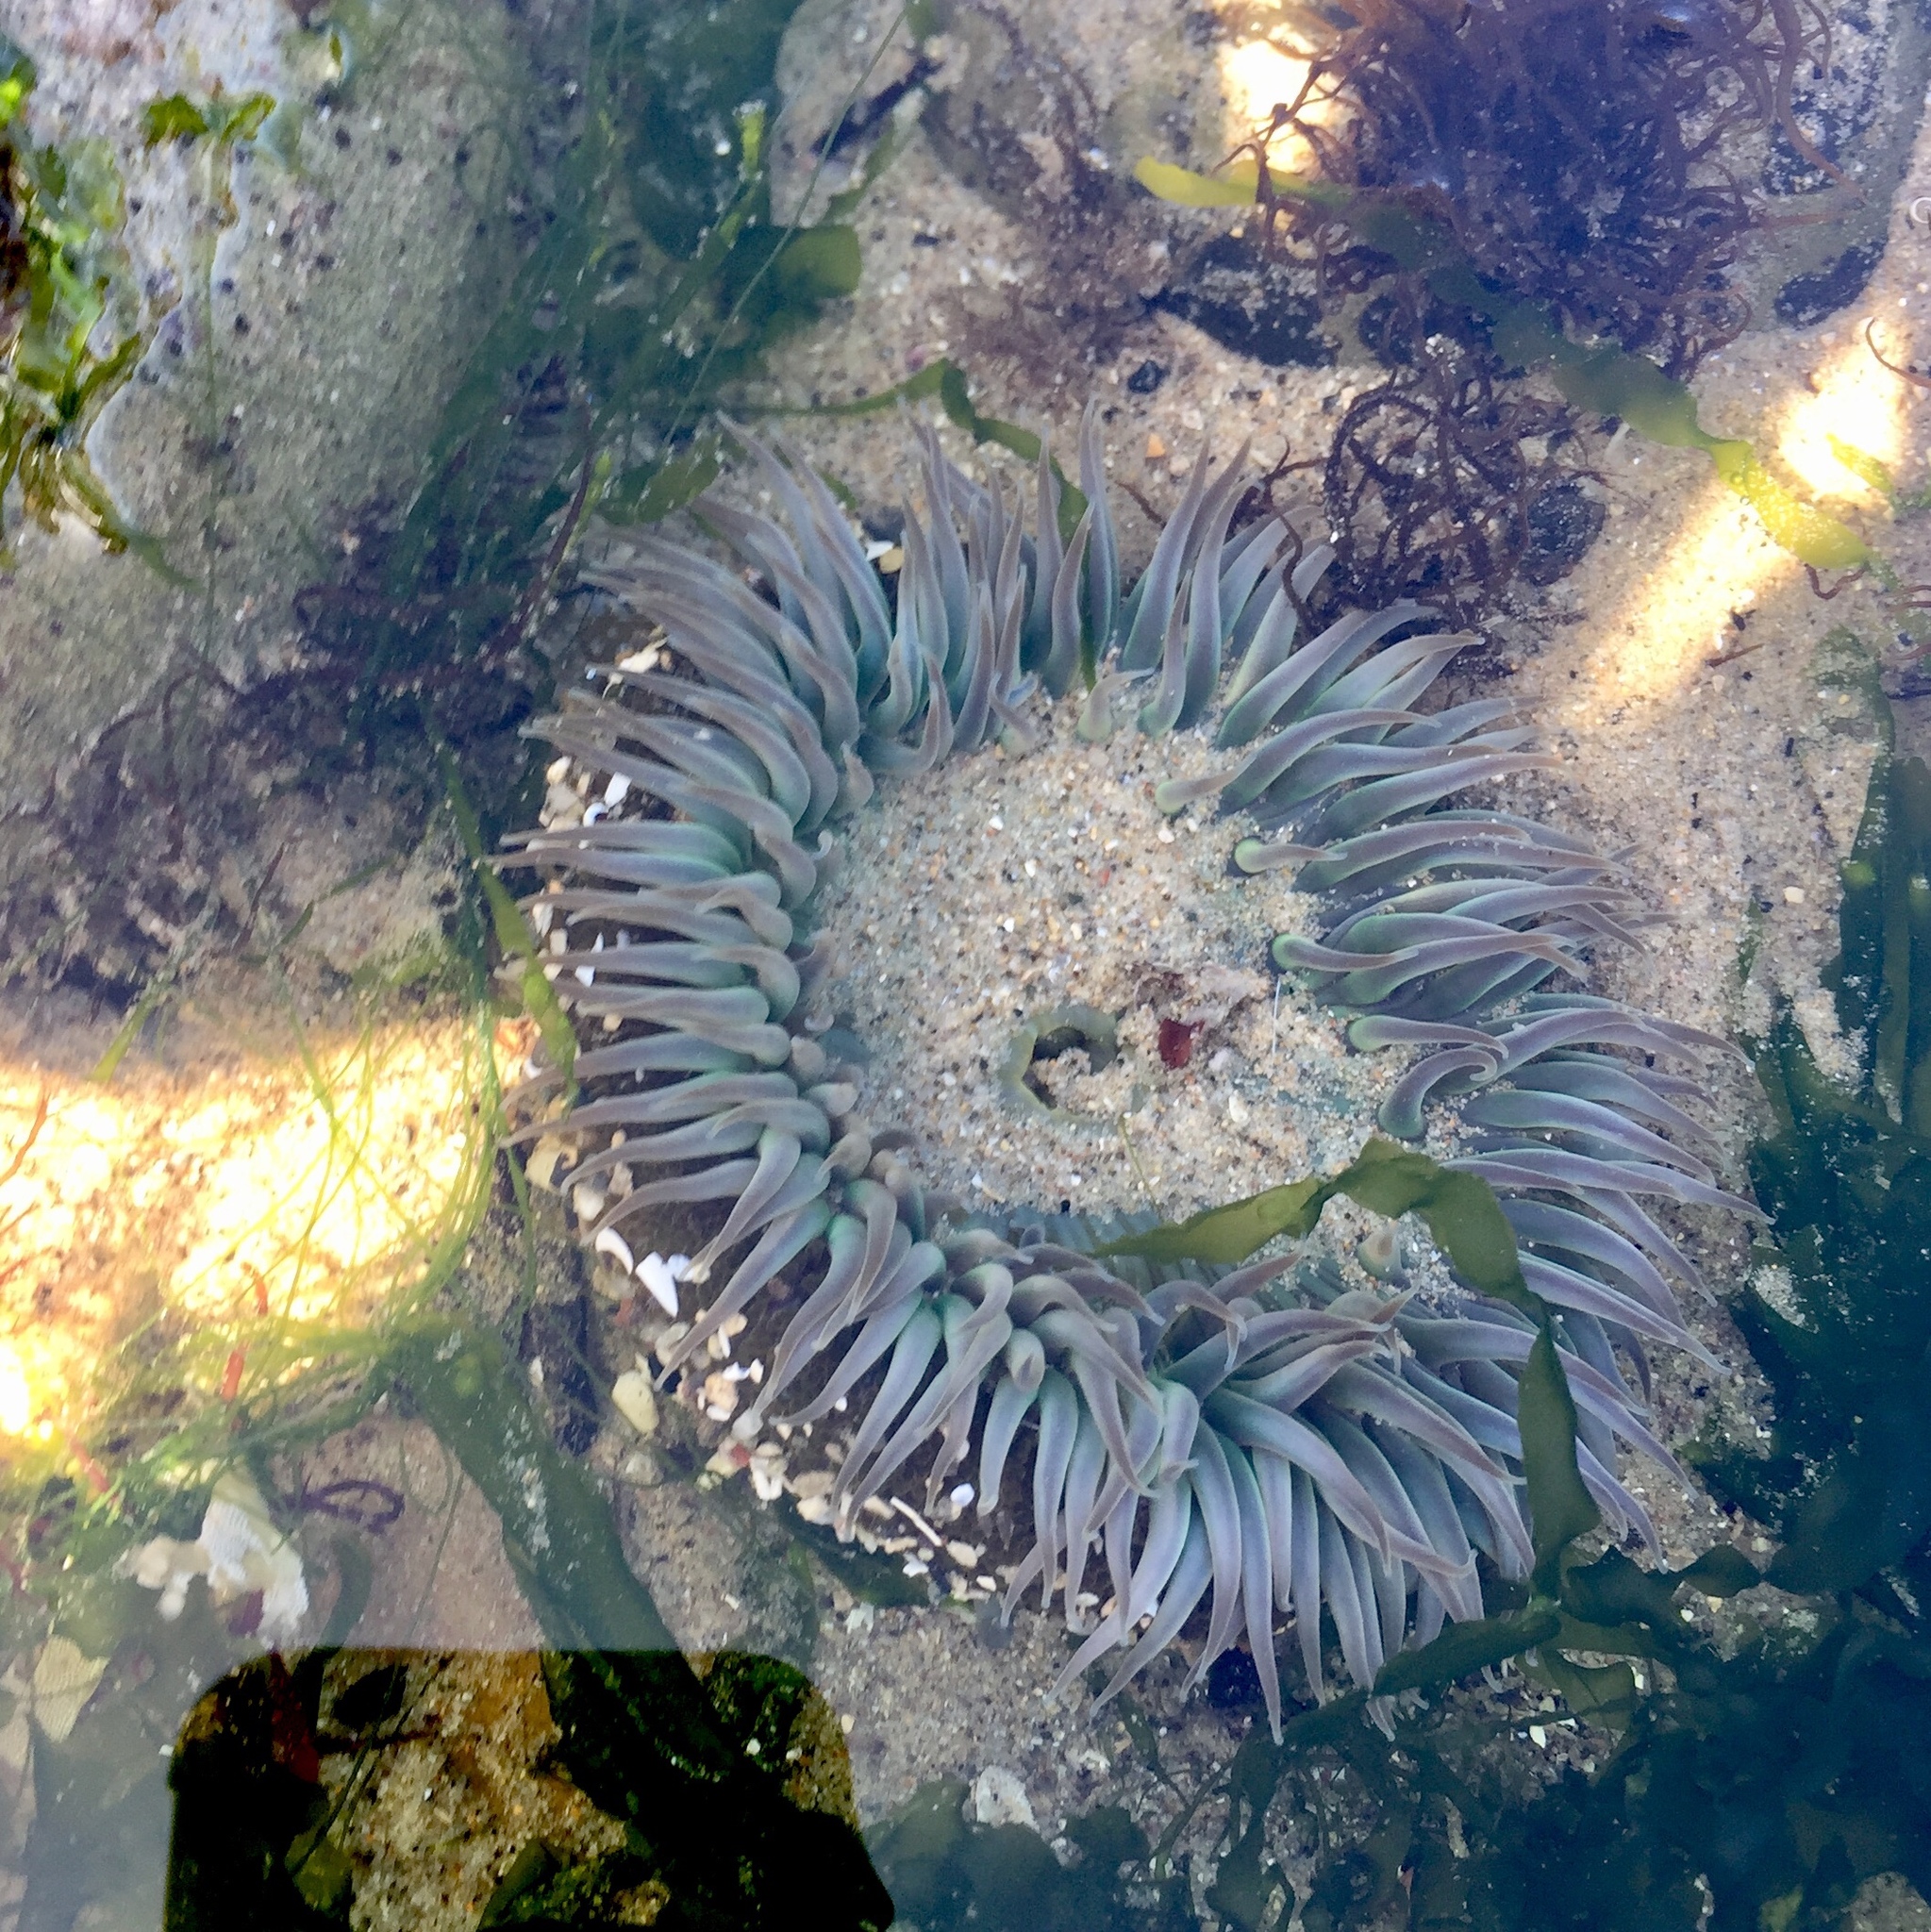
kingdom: Animalia
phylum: Cnidaria
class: Anthozoa
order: Actiniaria
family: Actiniidae
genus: Anthopleura
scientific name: Anthopleura sola
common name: Sun anemone
